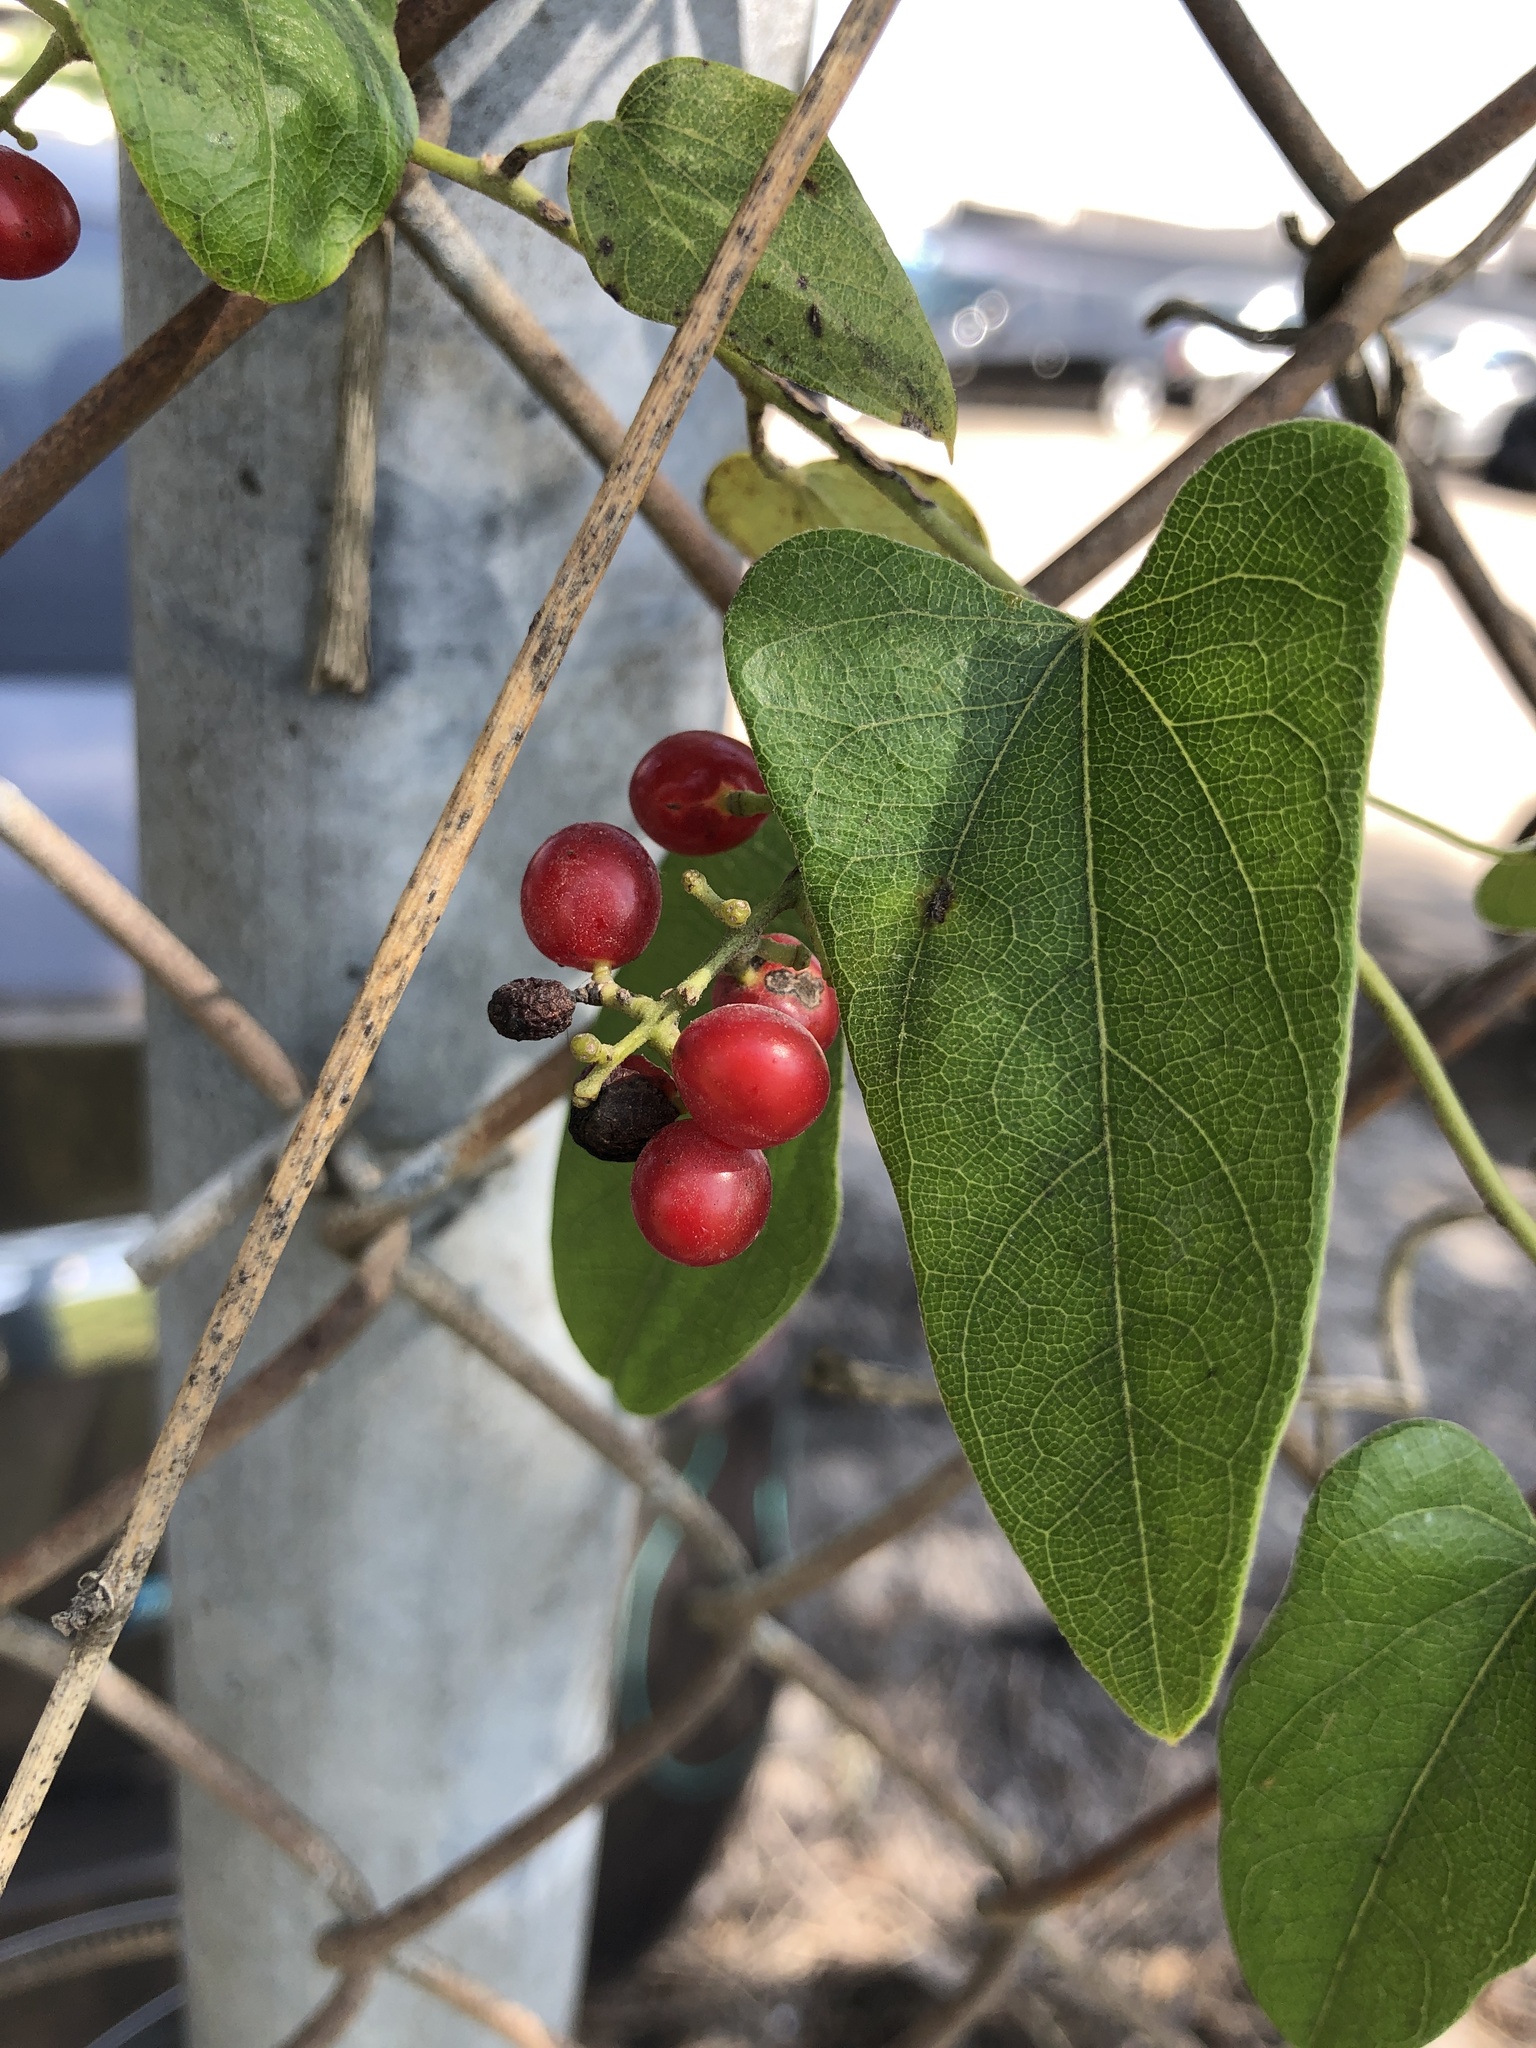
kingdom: Plantae
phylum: Tracheophyta
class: Magnoliopsida
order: Ranunculales
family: Menispermaceae
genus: Cocculus
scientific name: Cocculus carolinus
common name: Carolina moonseed
